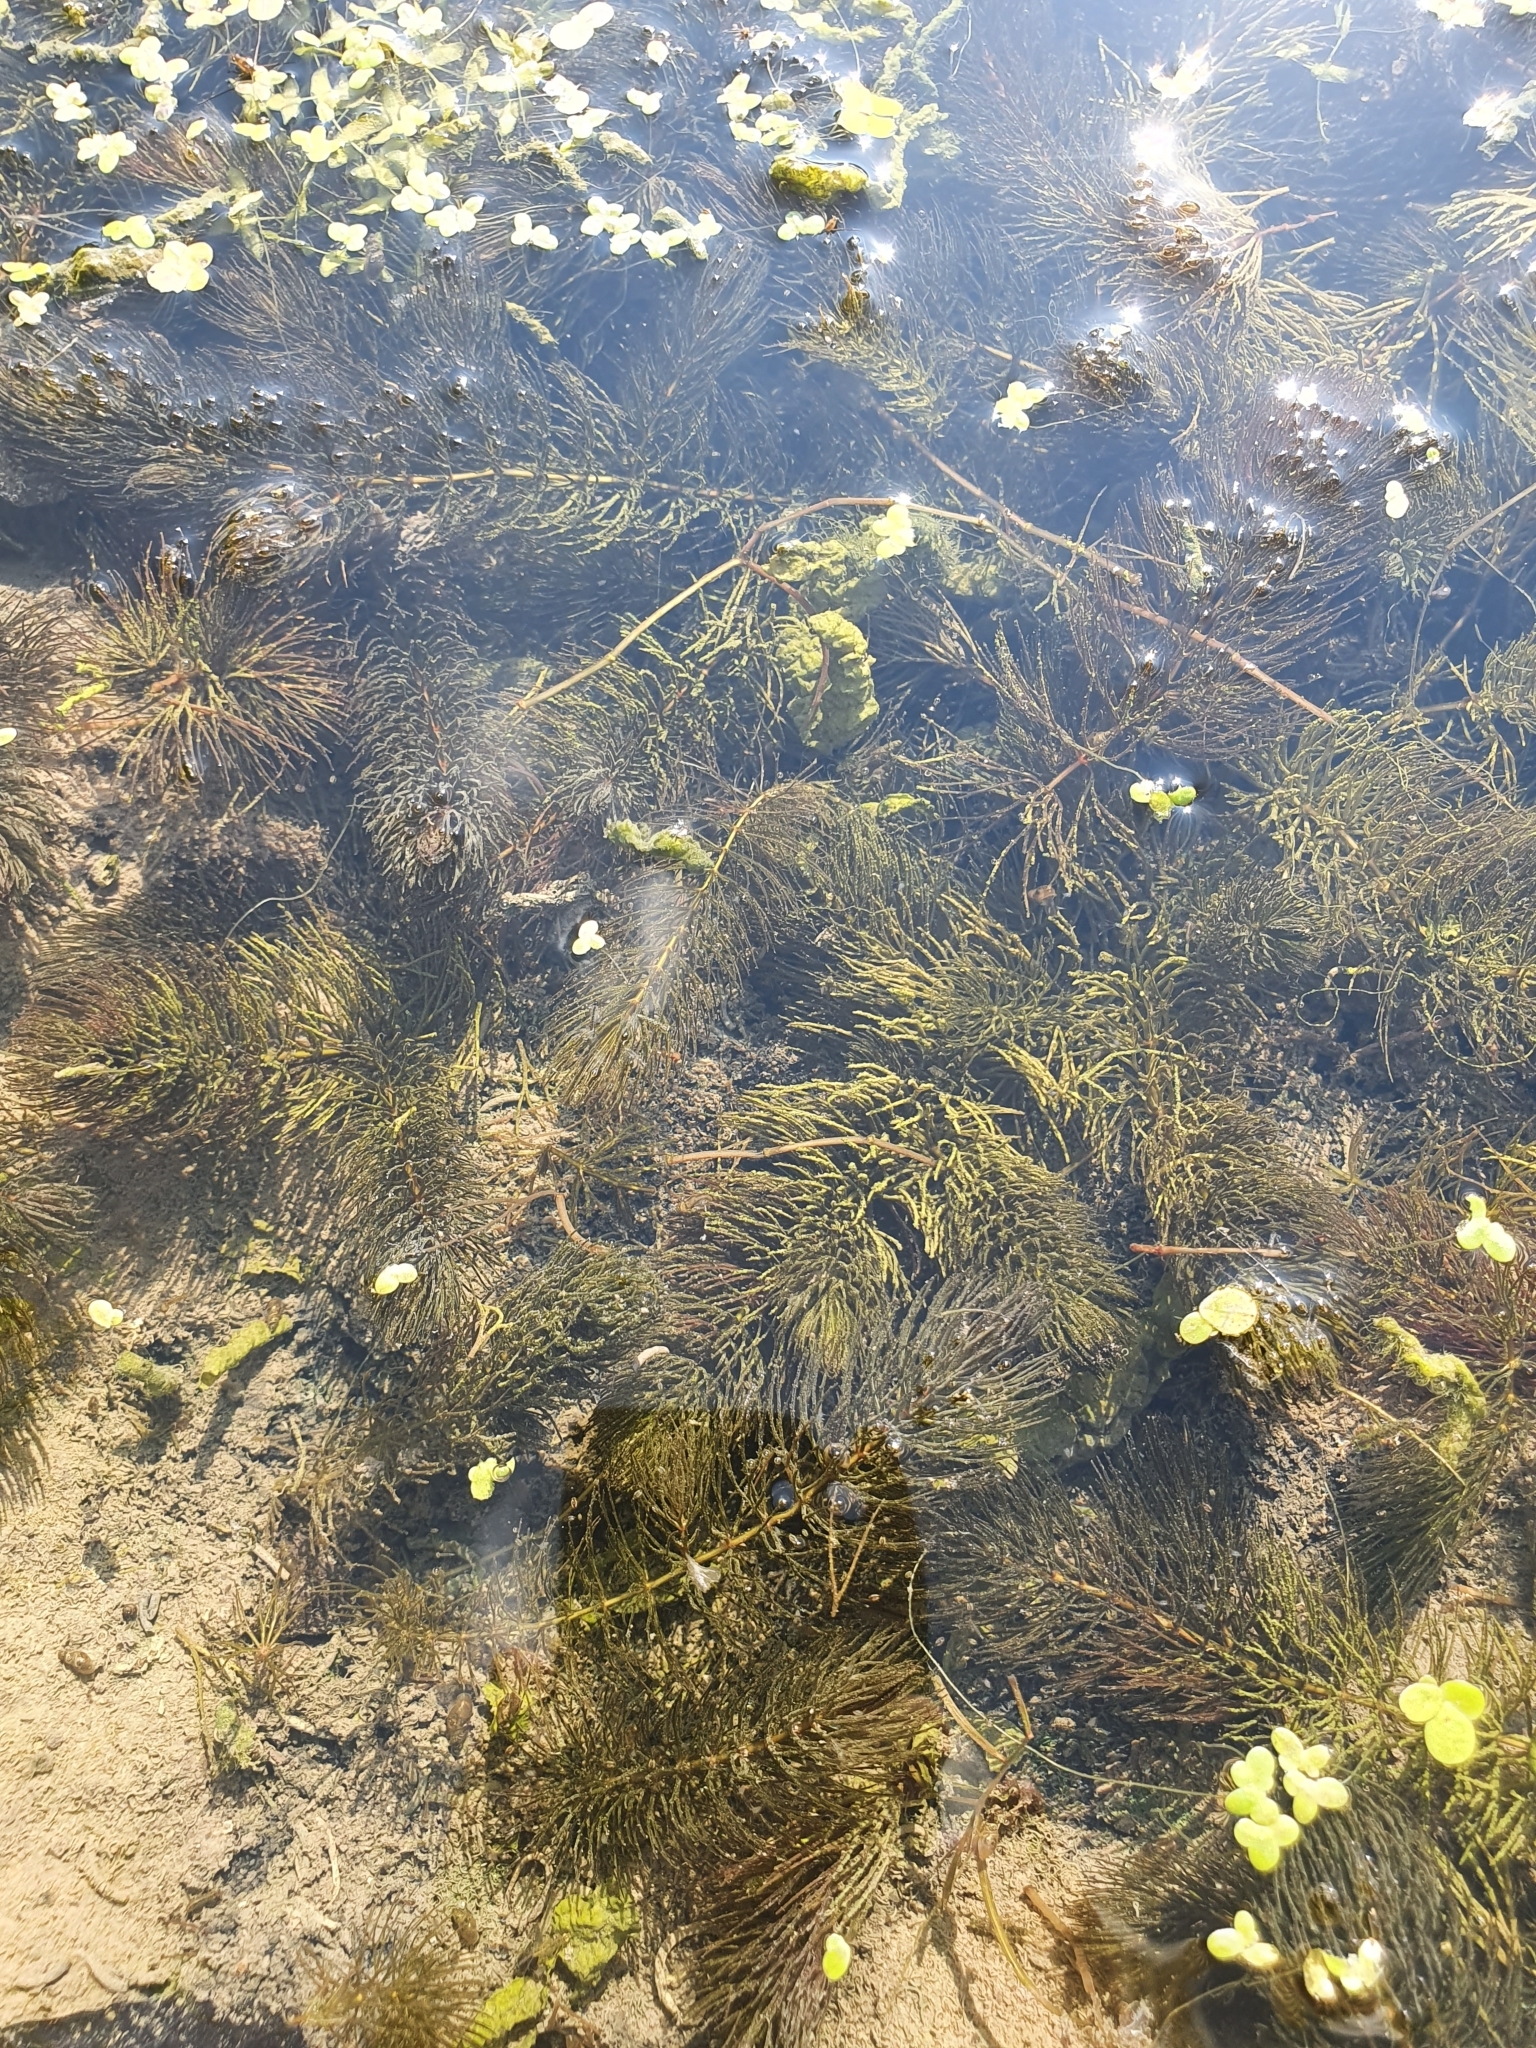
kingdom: Plantae
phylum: Tracheophyta
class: Magnoliopsida
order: Ceratophyllales
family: Ceratophyllaceae
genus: Ceratophyllum
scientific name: Ceratophyllum demersum
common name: Rigid hornwort
